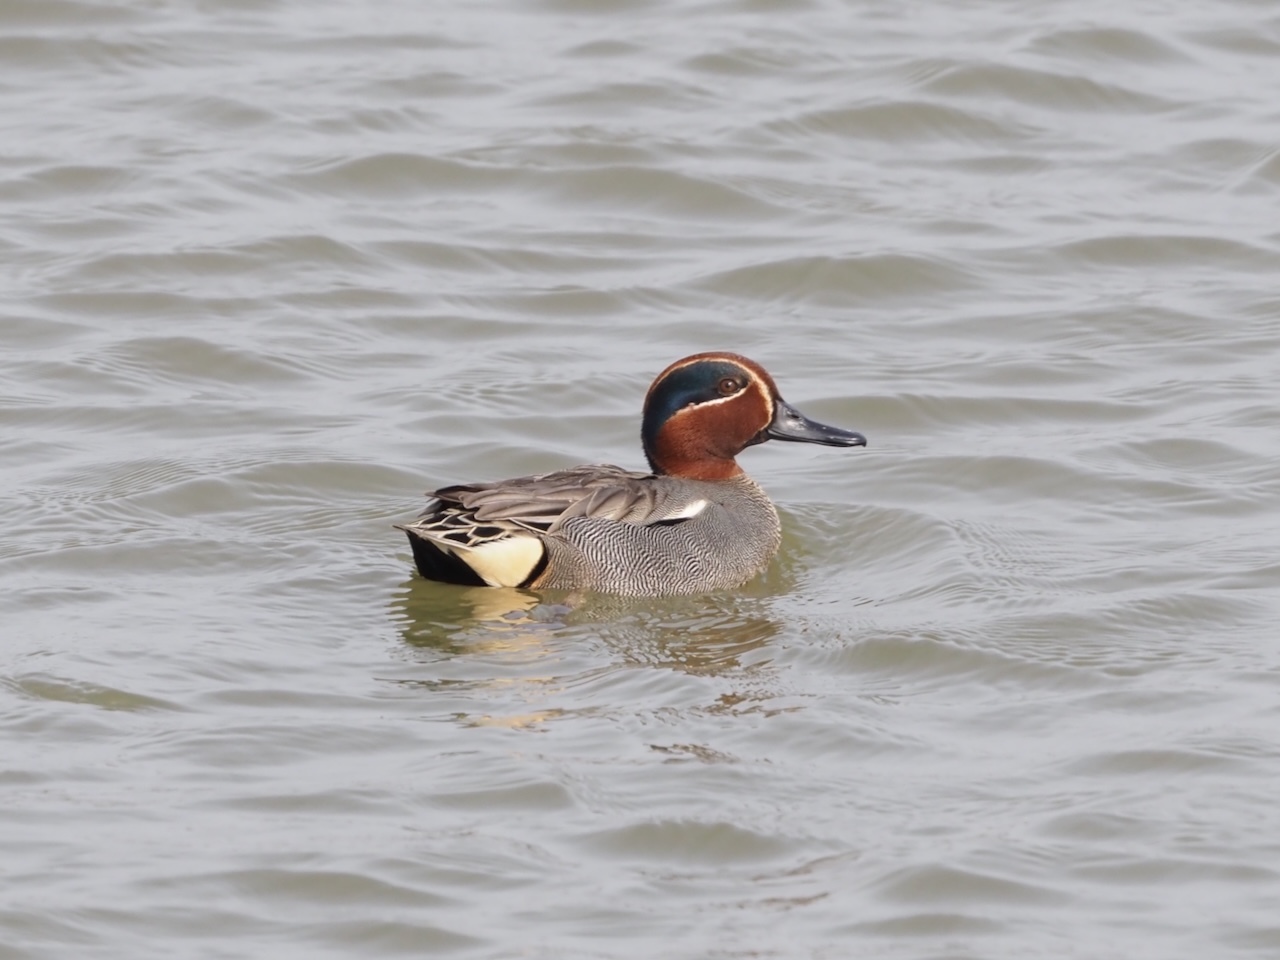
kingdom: Animalia
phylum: Chordata
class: Aves
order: Anseriformes
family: Anatidae
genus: Anas
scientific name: Anas crecca
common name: Eurasian teal
